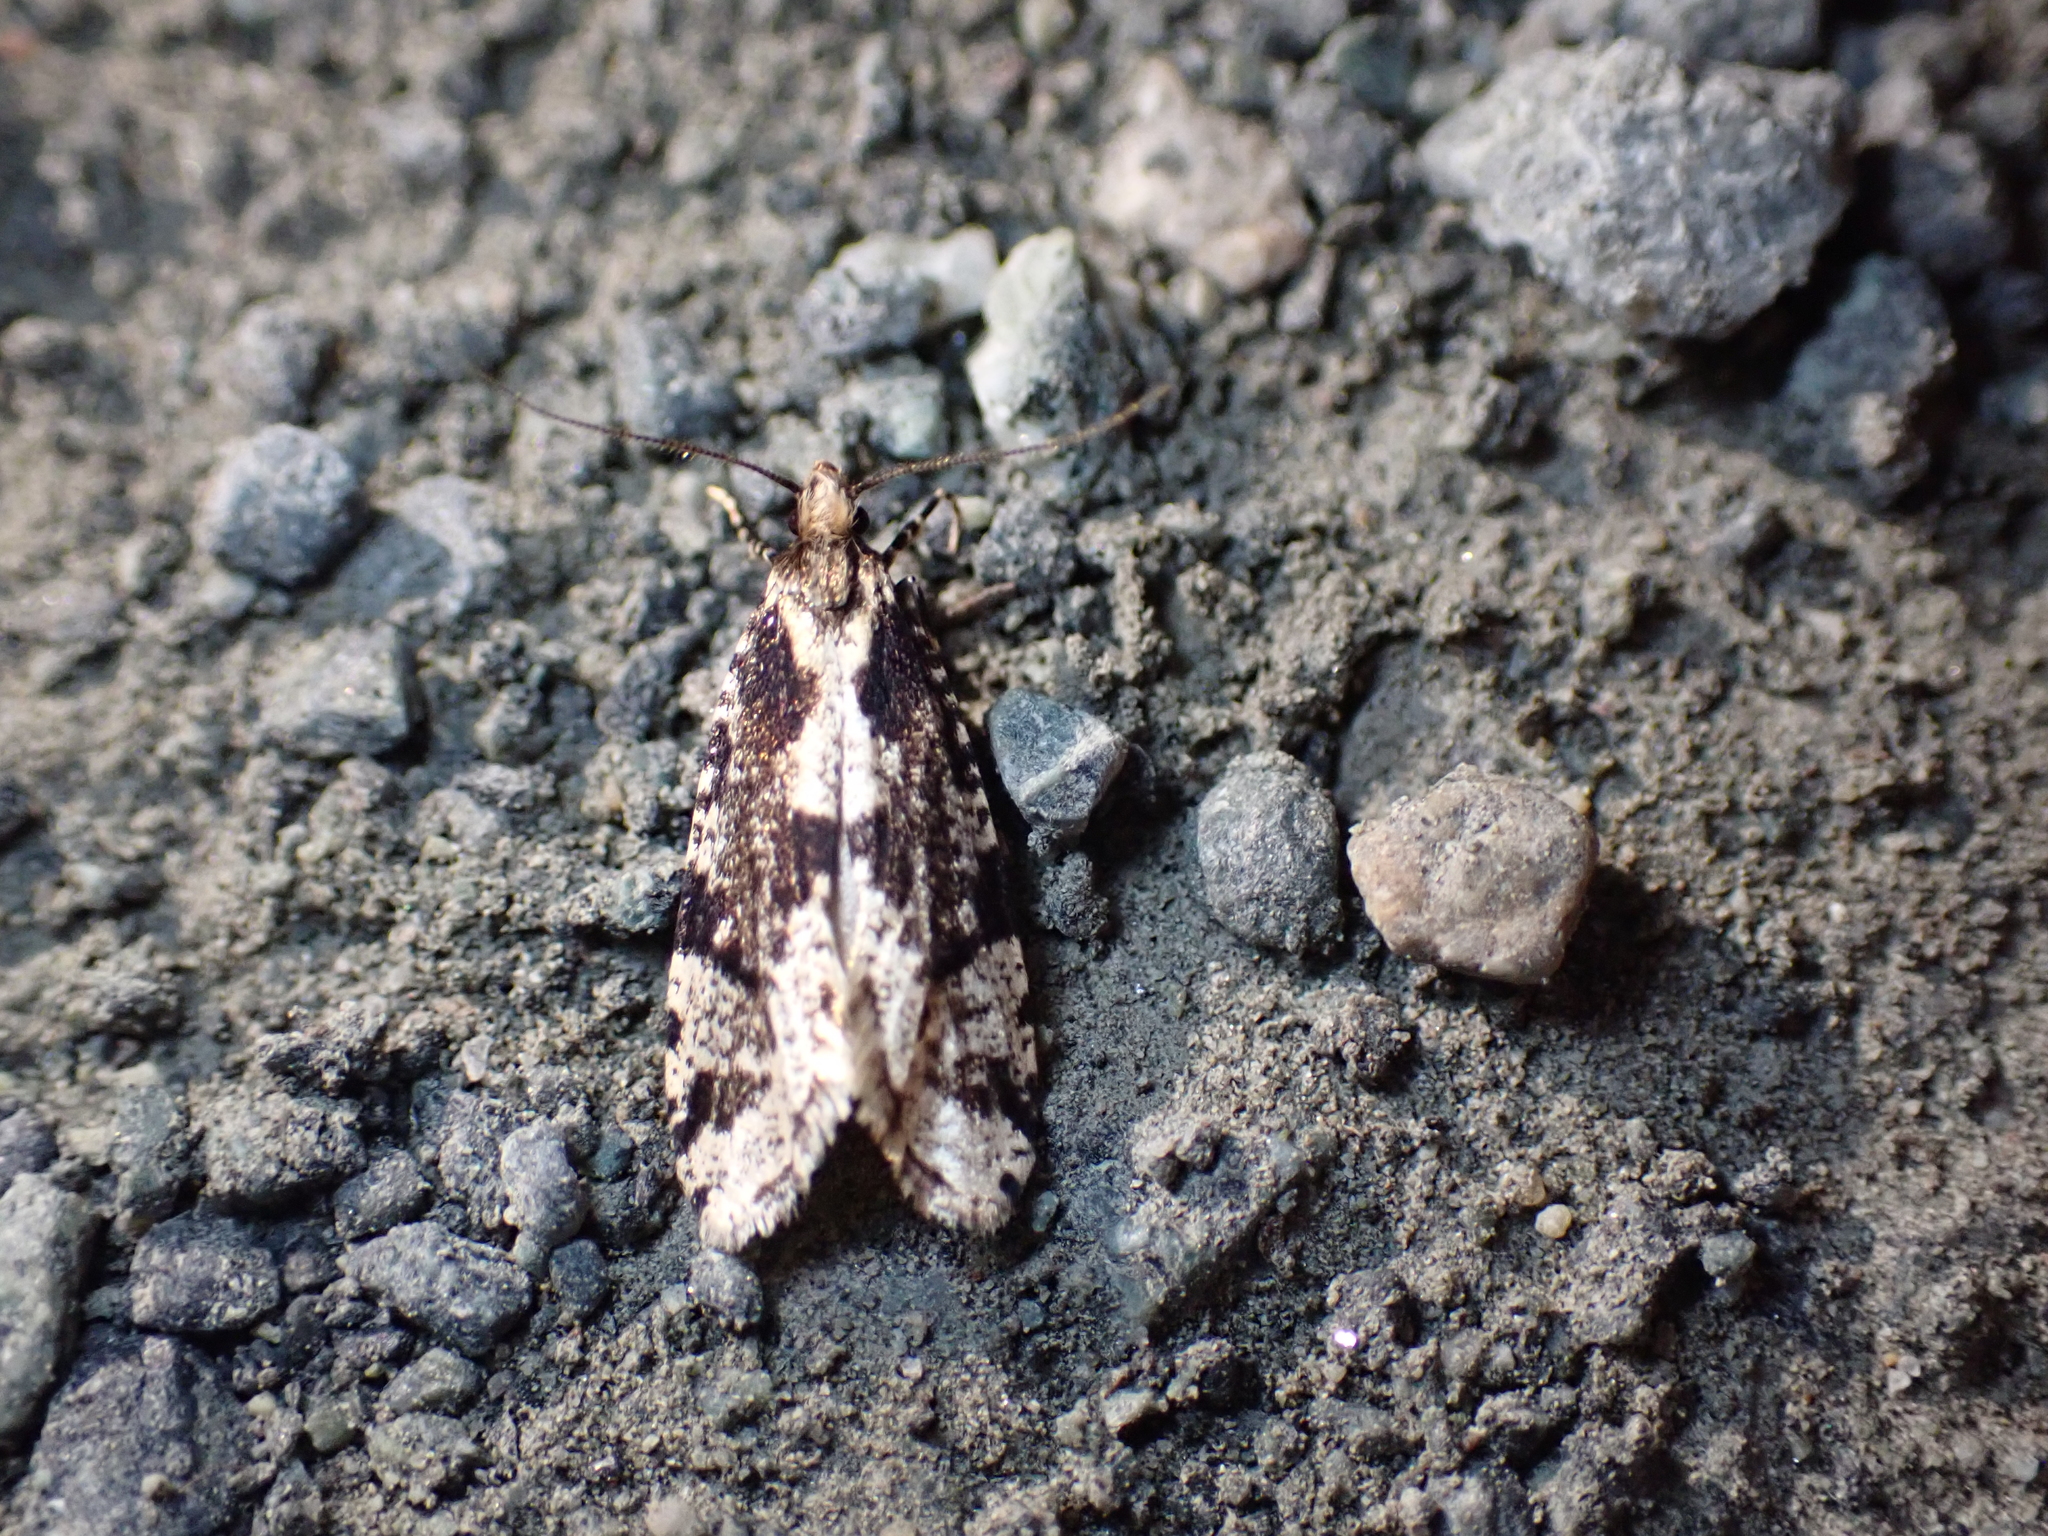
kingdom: Animalia
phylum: Arthropoda
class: Insecta
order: Lepidoptera
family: Tineidae
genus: Morophagoides
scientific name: Morophagoides burkerella
